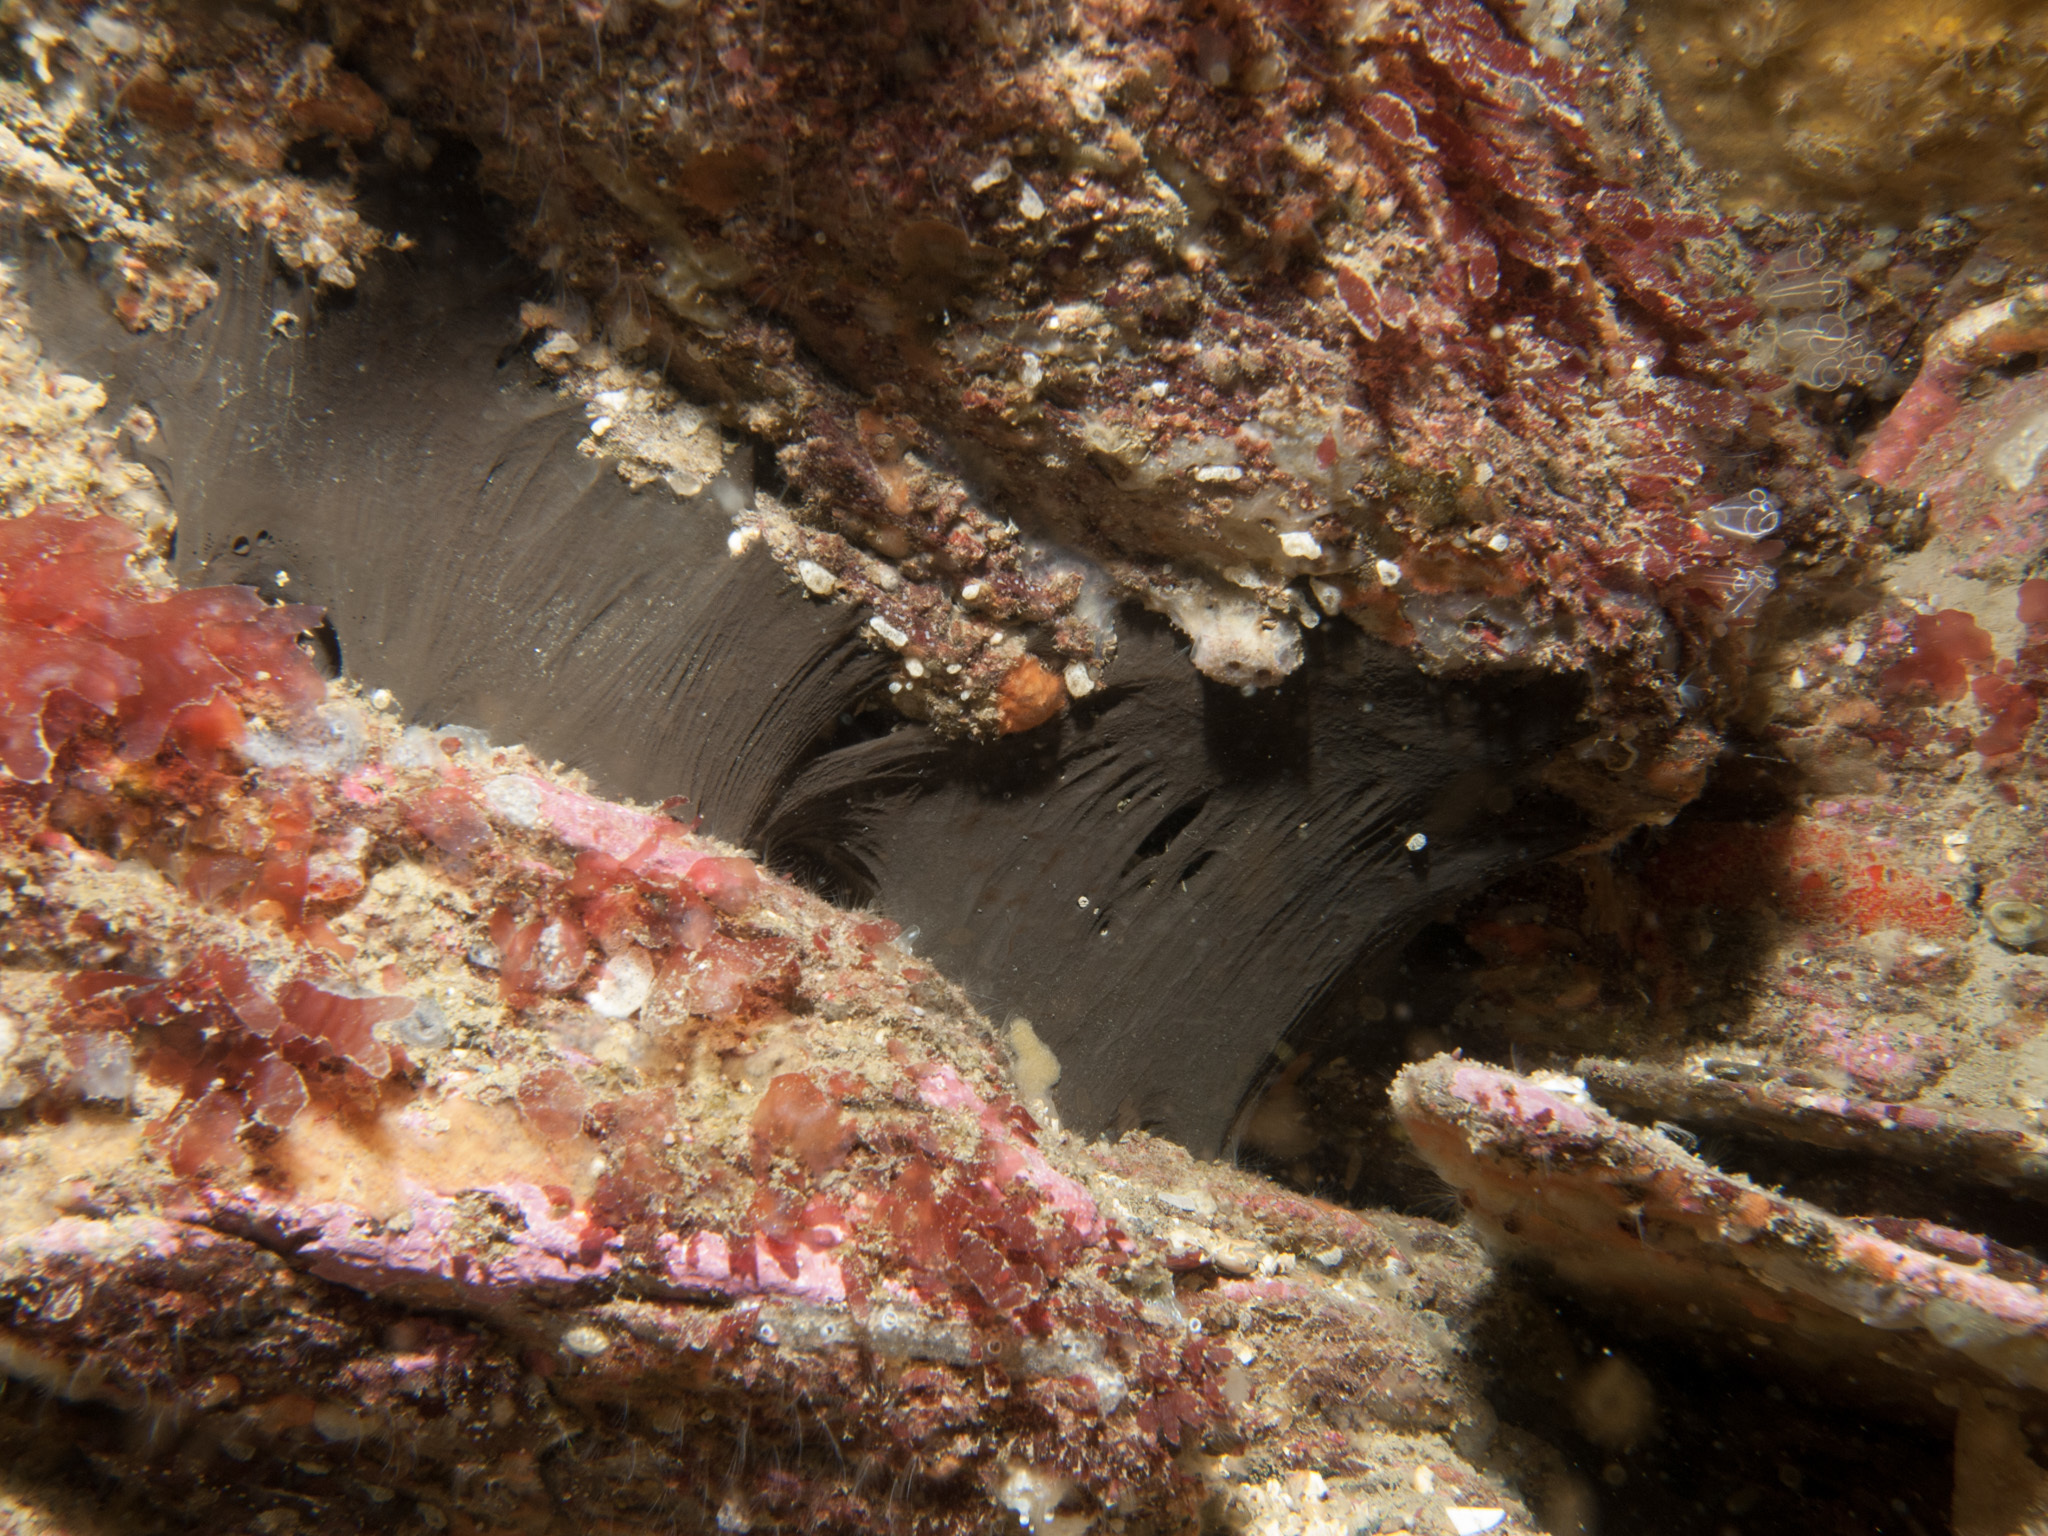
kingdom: Animalia
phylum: Porifera
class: Demospongiae
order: Tetractinellida
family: Ancorinidae
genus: Dercitus
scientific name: Dercitus bucklandi
